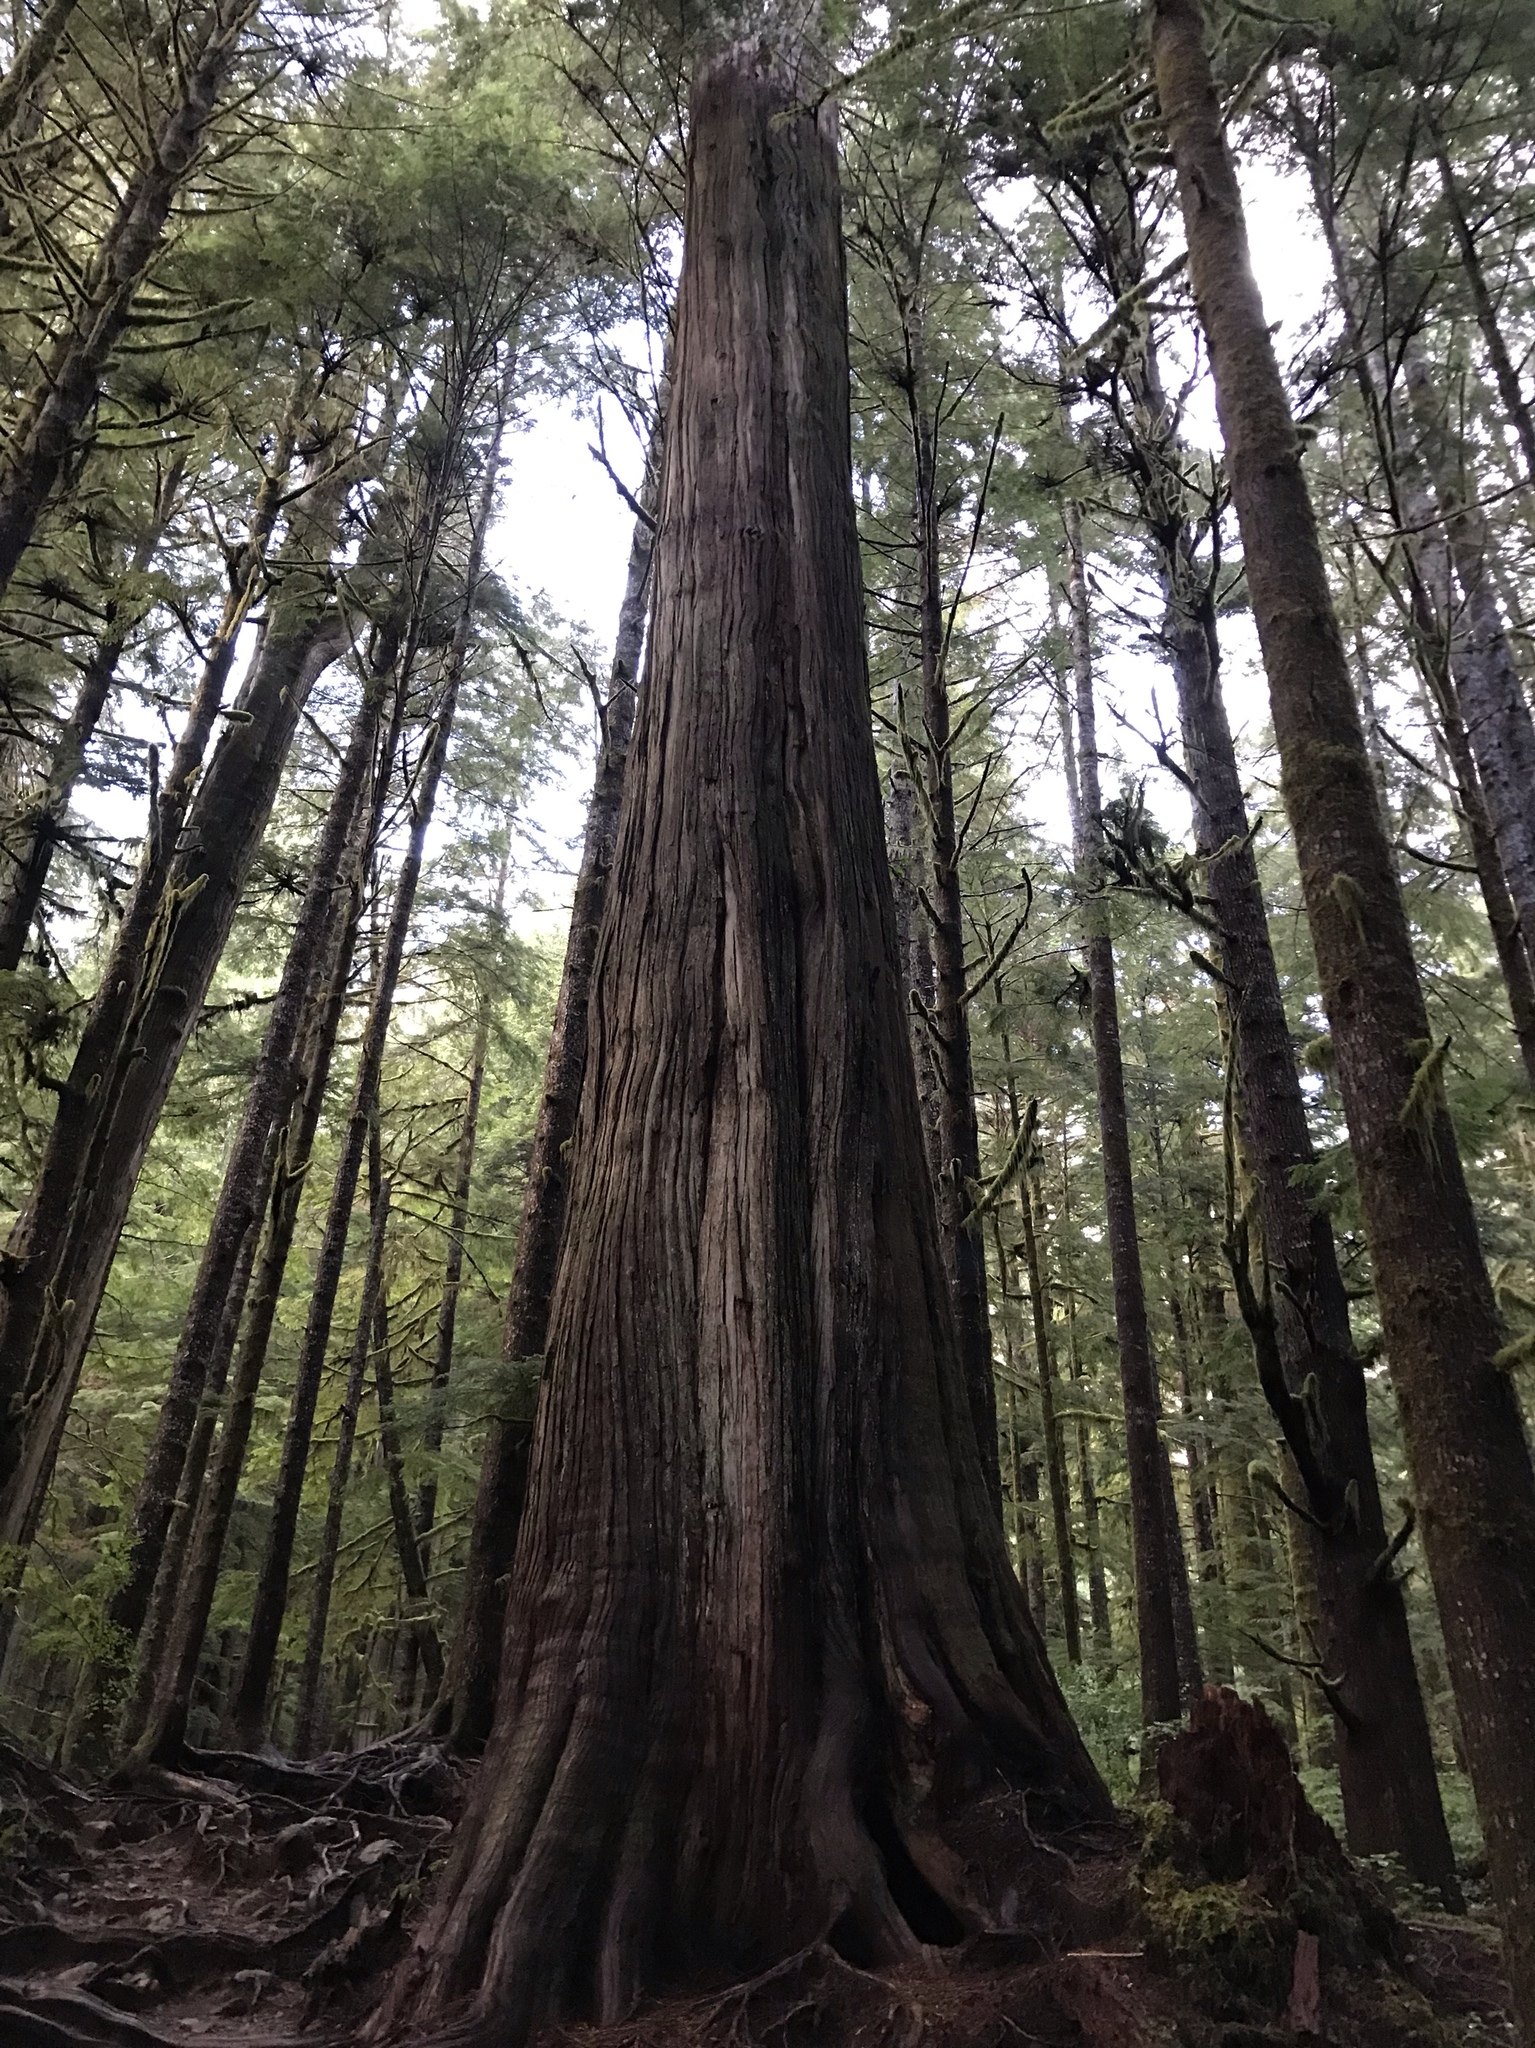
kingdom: Plantae
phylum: Tracheophyta
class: Pinopsida
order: Pinales
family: Cupressaceae
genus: Thuja
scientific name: Thuja plicata
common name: Western red-cedar
